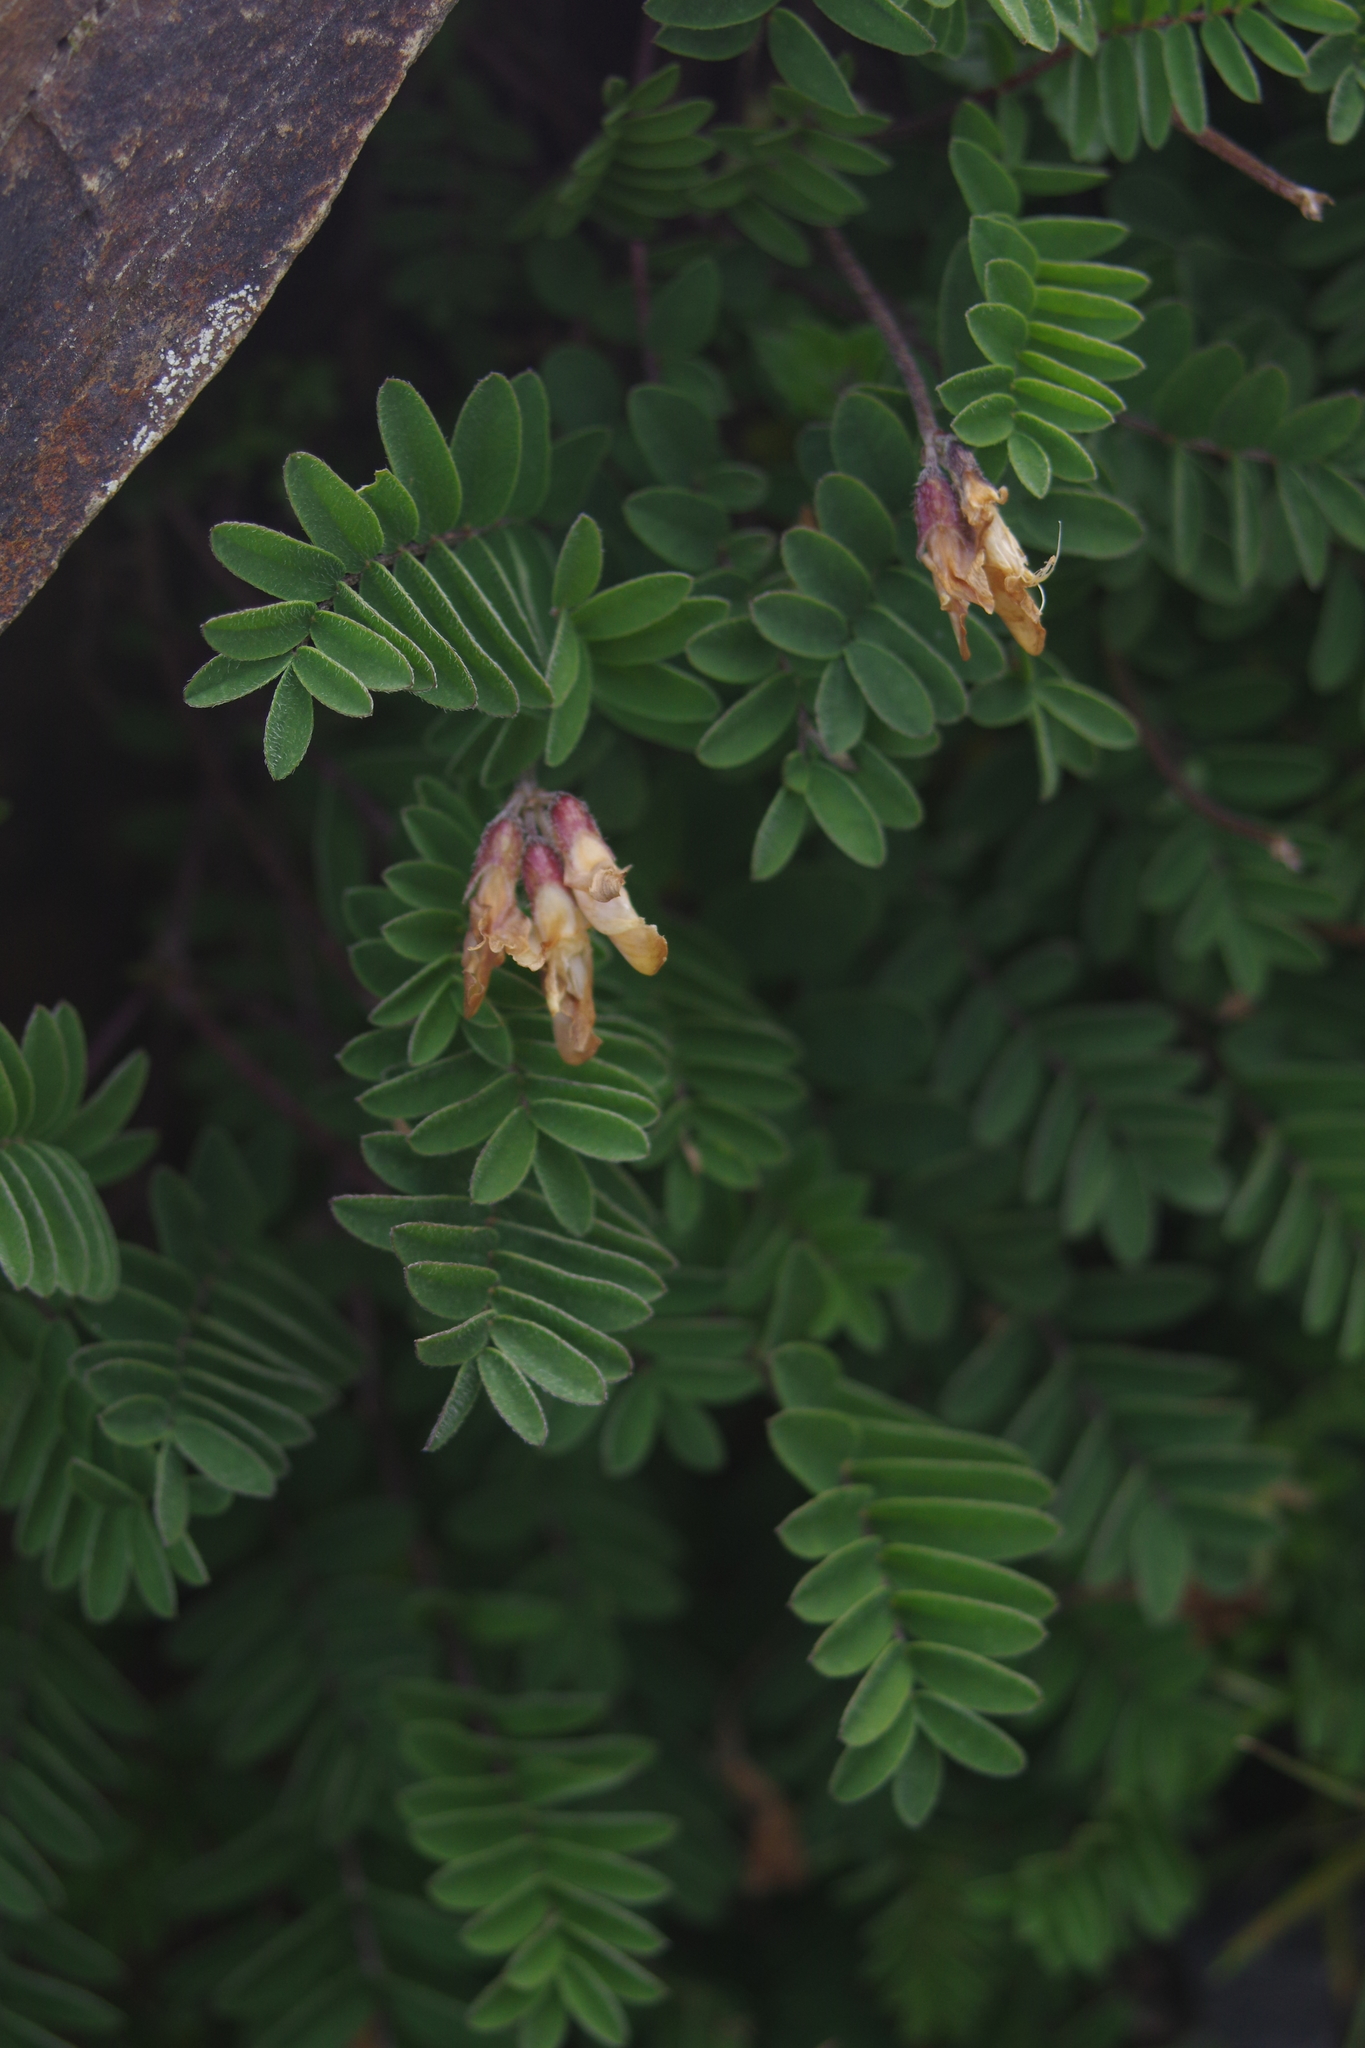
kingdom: Plantae
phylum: Tracheophyta
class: Magnoliopsida
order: Fabales
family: Fabaceae
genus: Astragalus
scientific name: Astragalus nankotaizanensis
